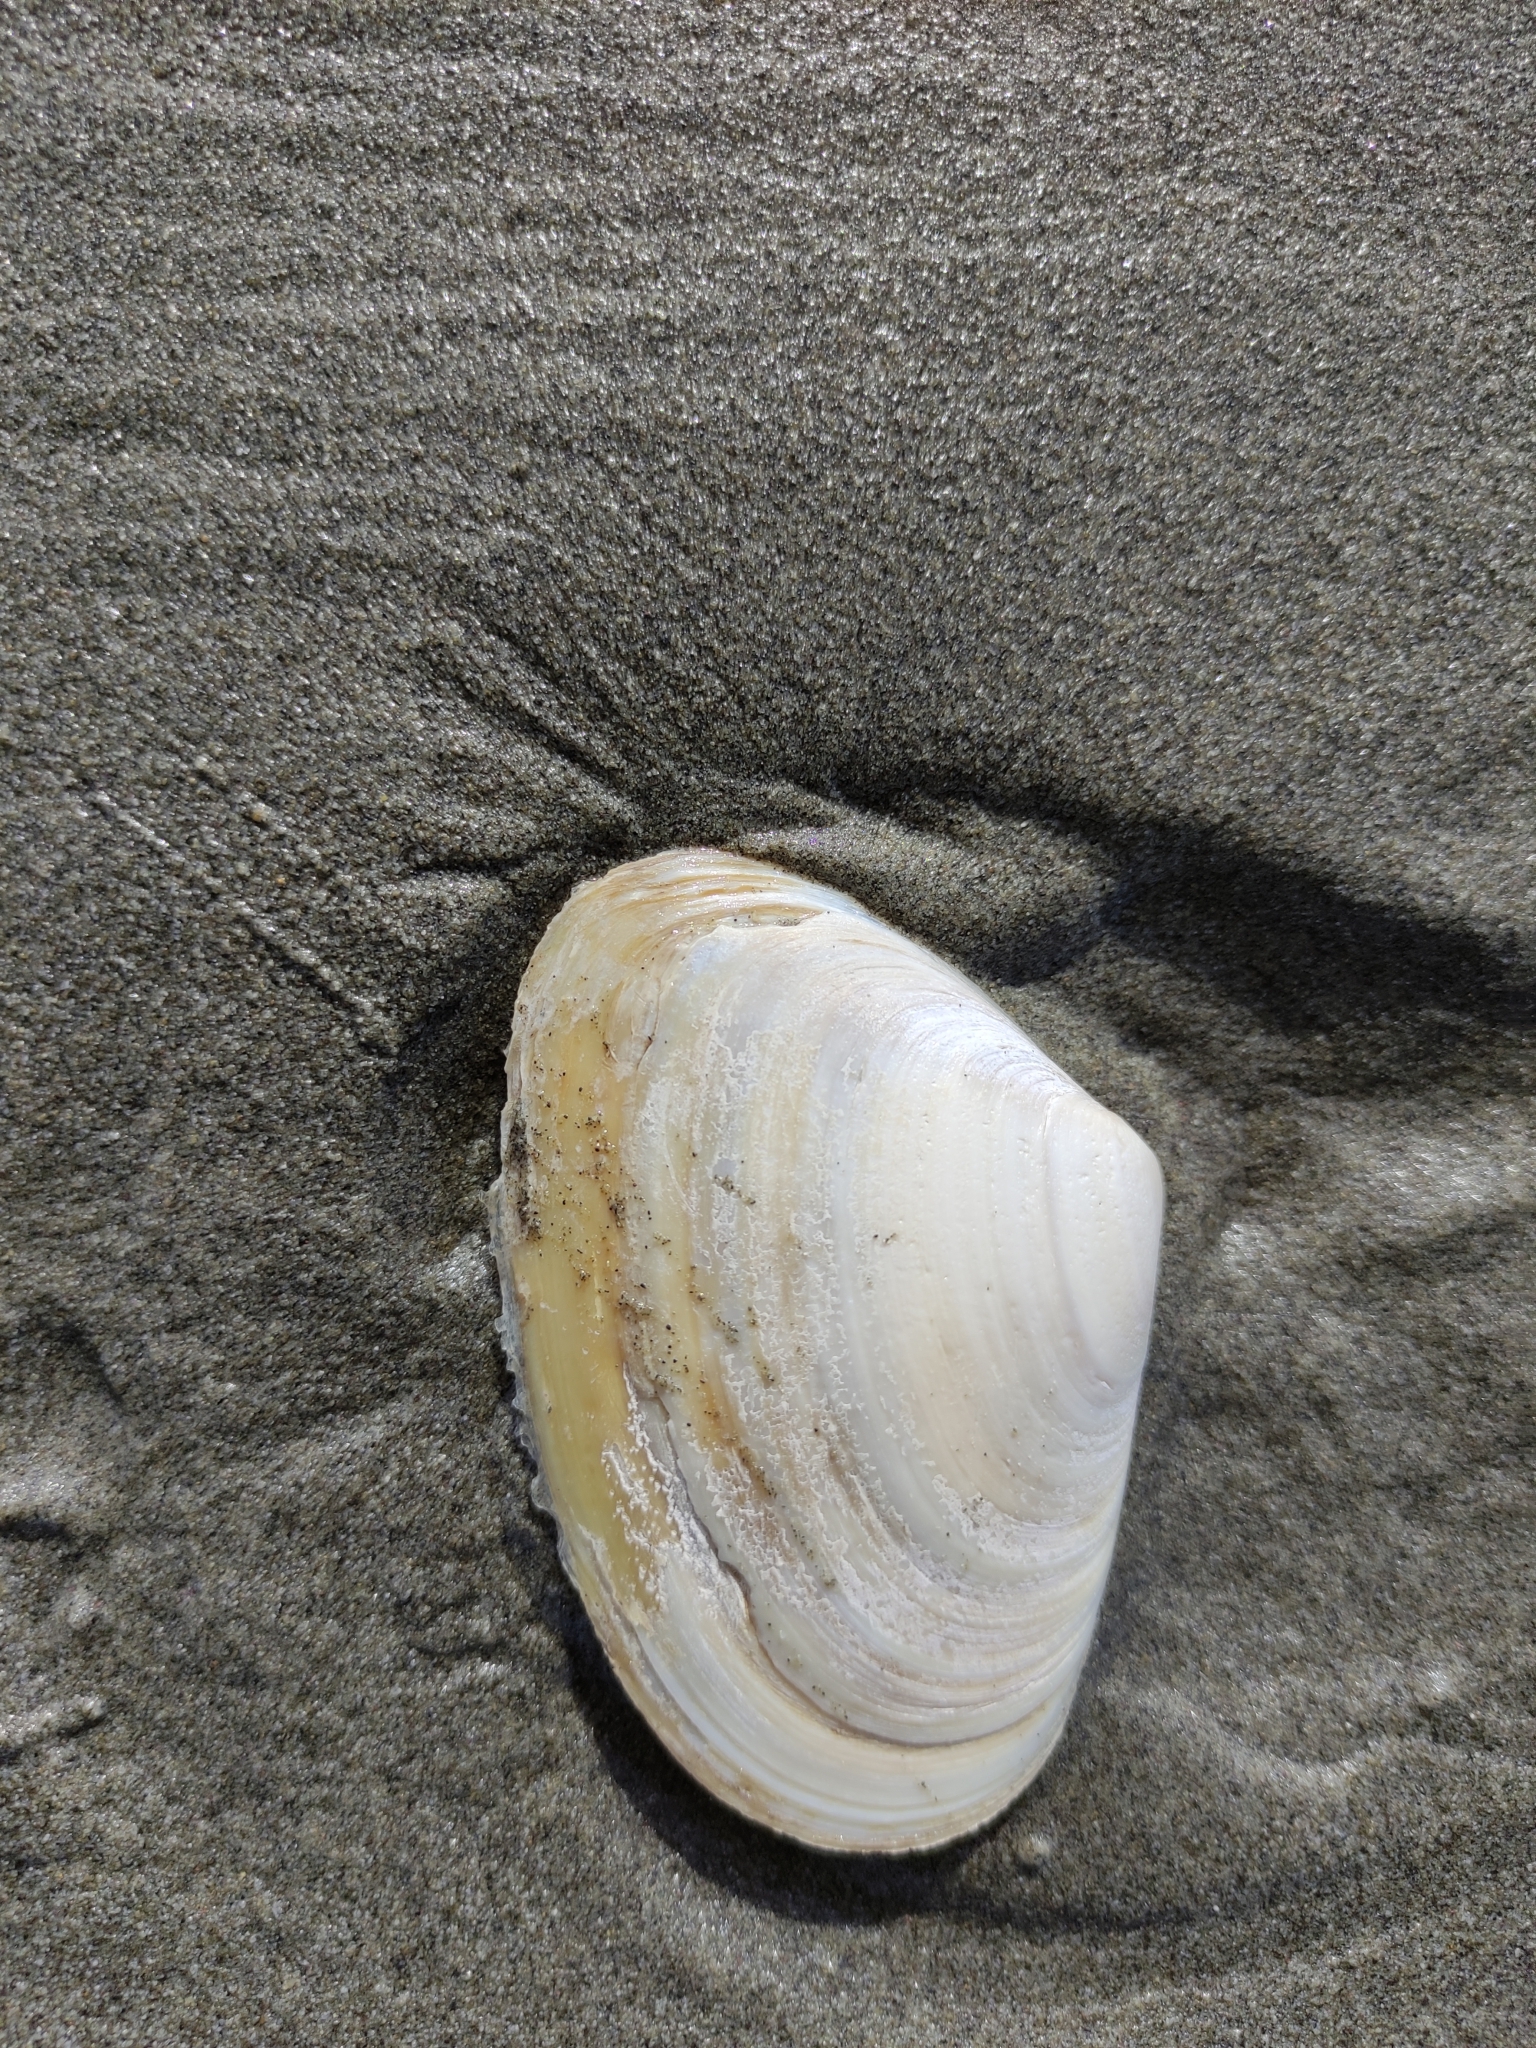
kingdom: Animalia
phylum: Mollusca
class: Bivalvia
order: Venerida
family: Mesodesmatidae
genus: Paphies
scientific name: Paphies donacina
